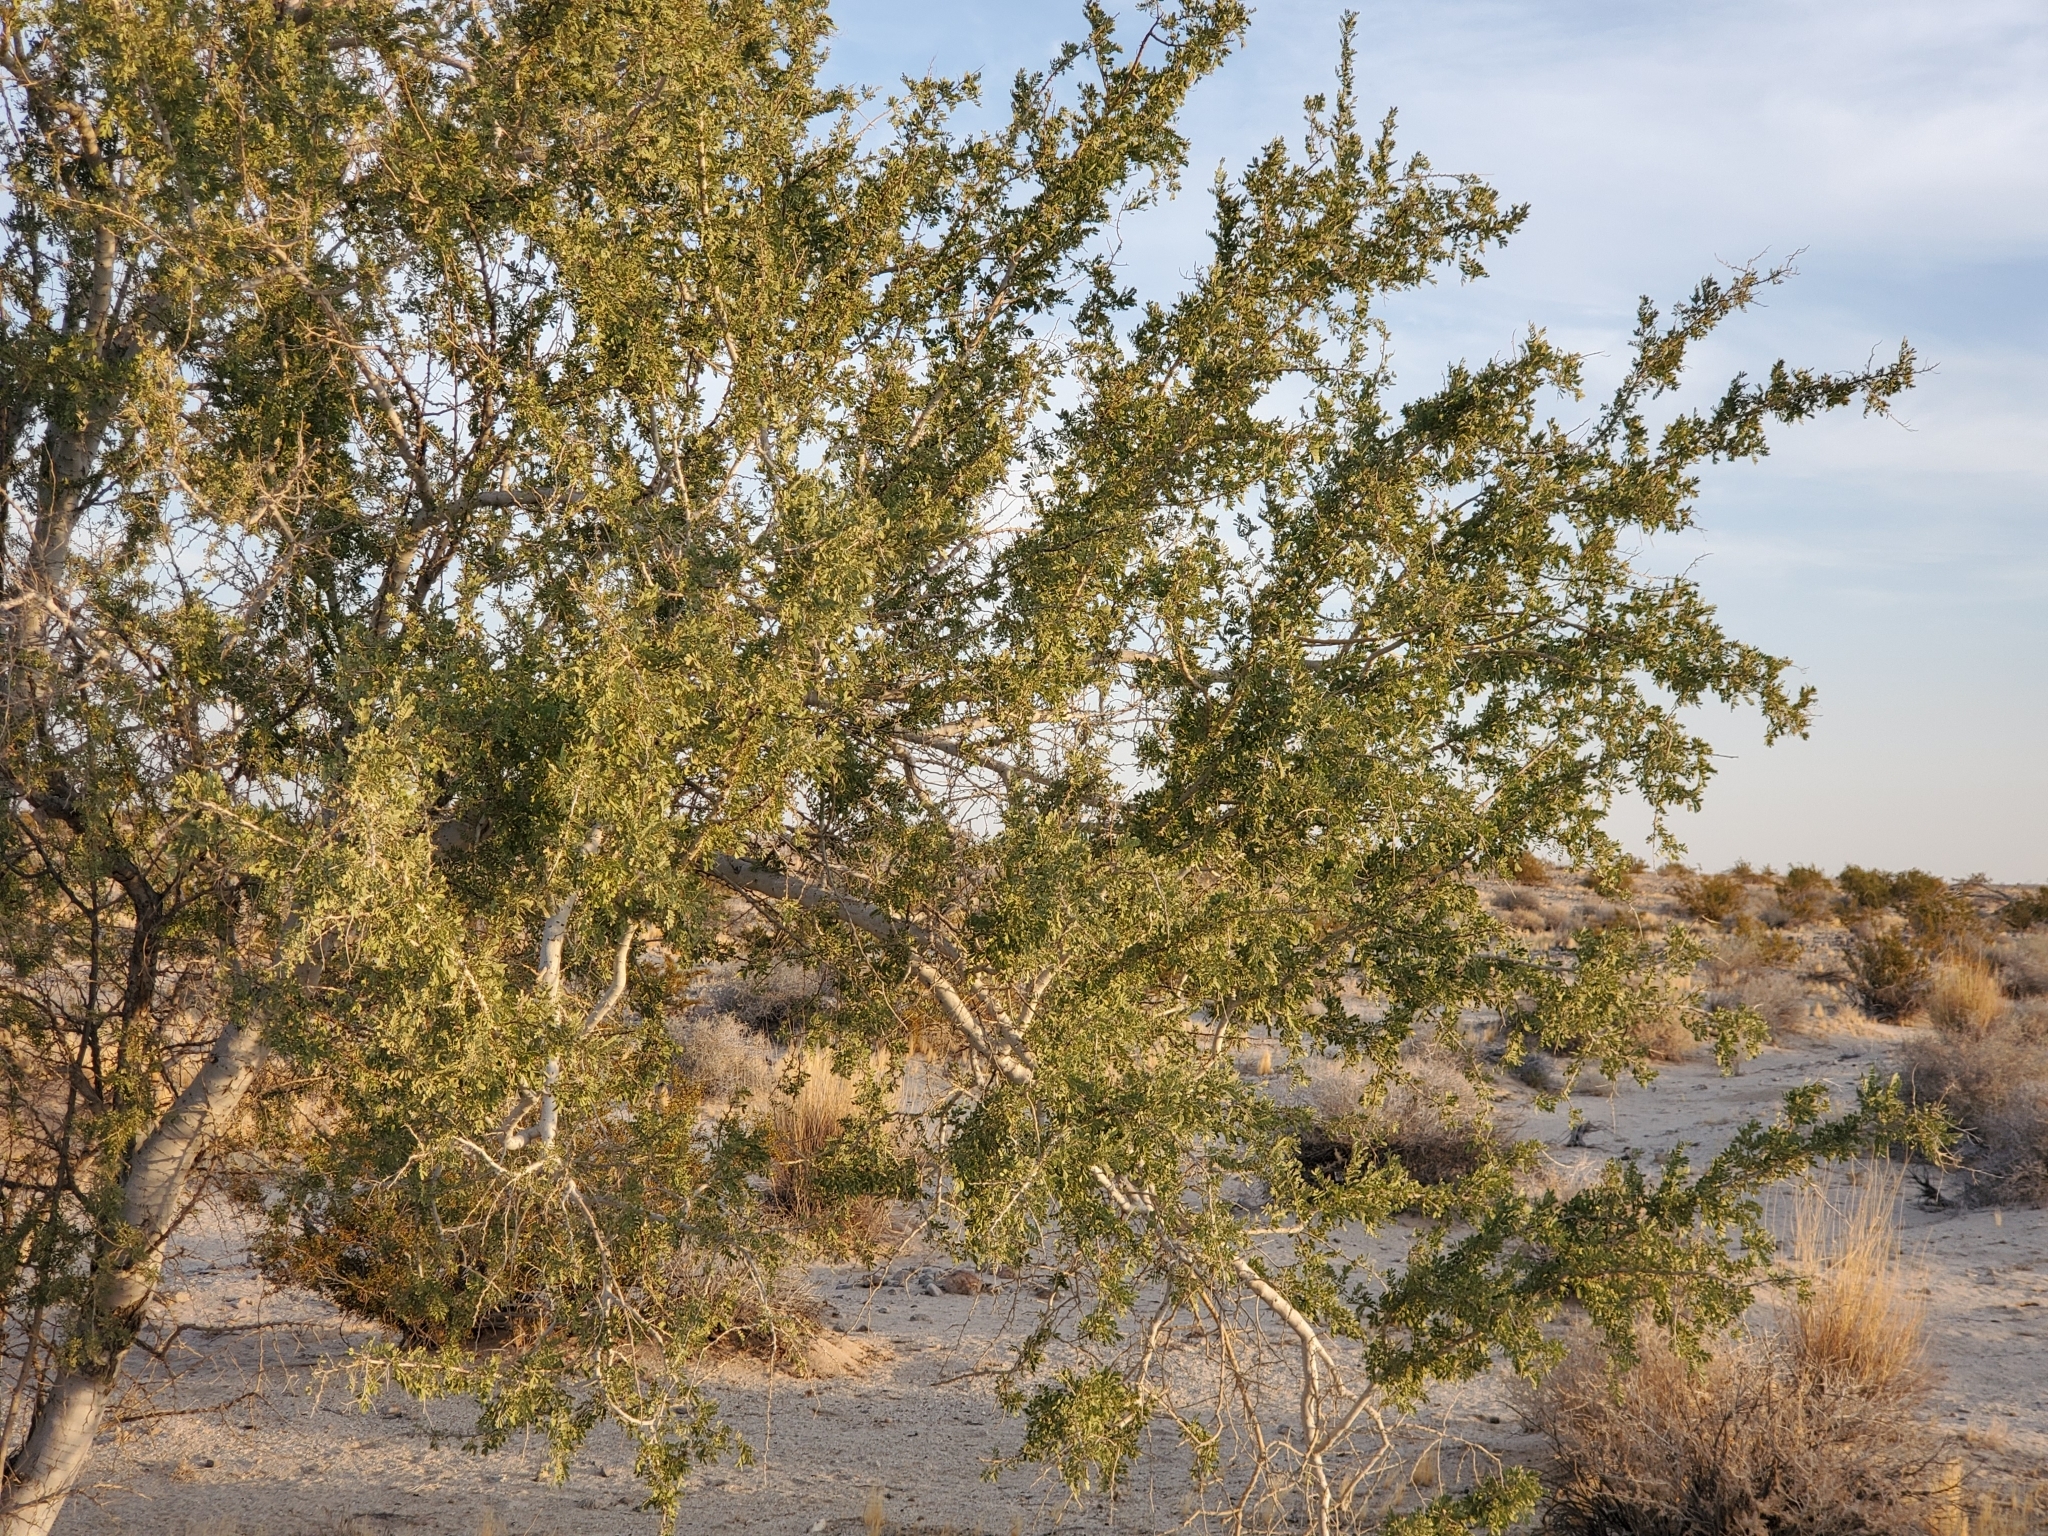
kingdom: Plantae
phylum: Tracheophyta
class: Magnoliopsida
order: Fabales
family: Fabaceae
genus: Olneya
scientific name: Olneya tesota
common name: Desert ironwood
